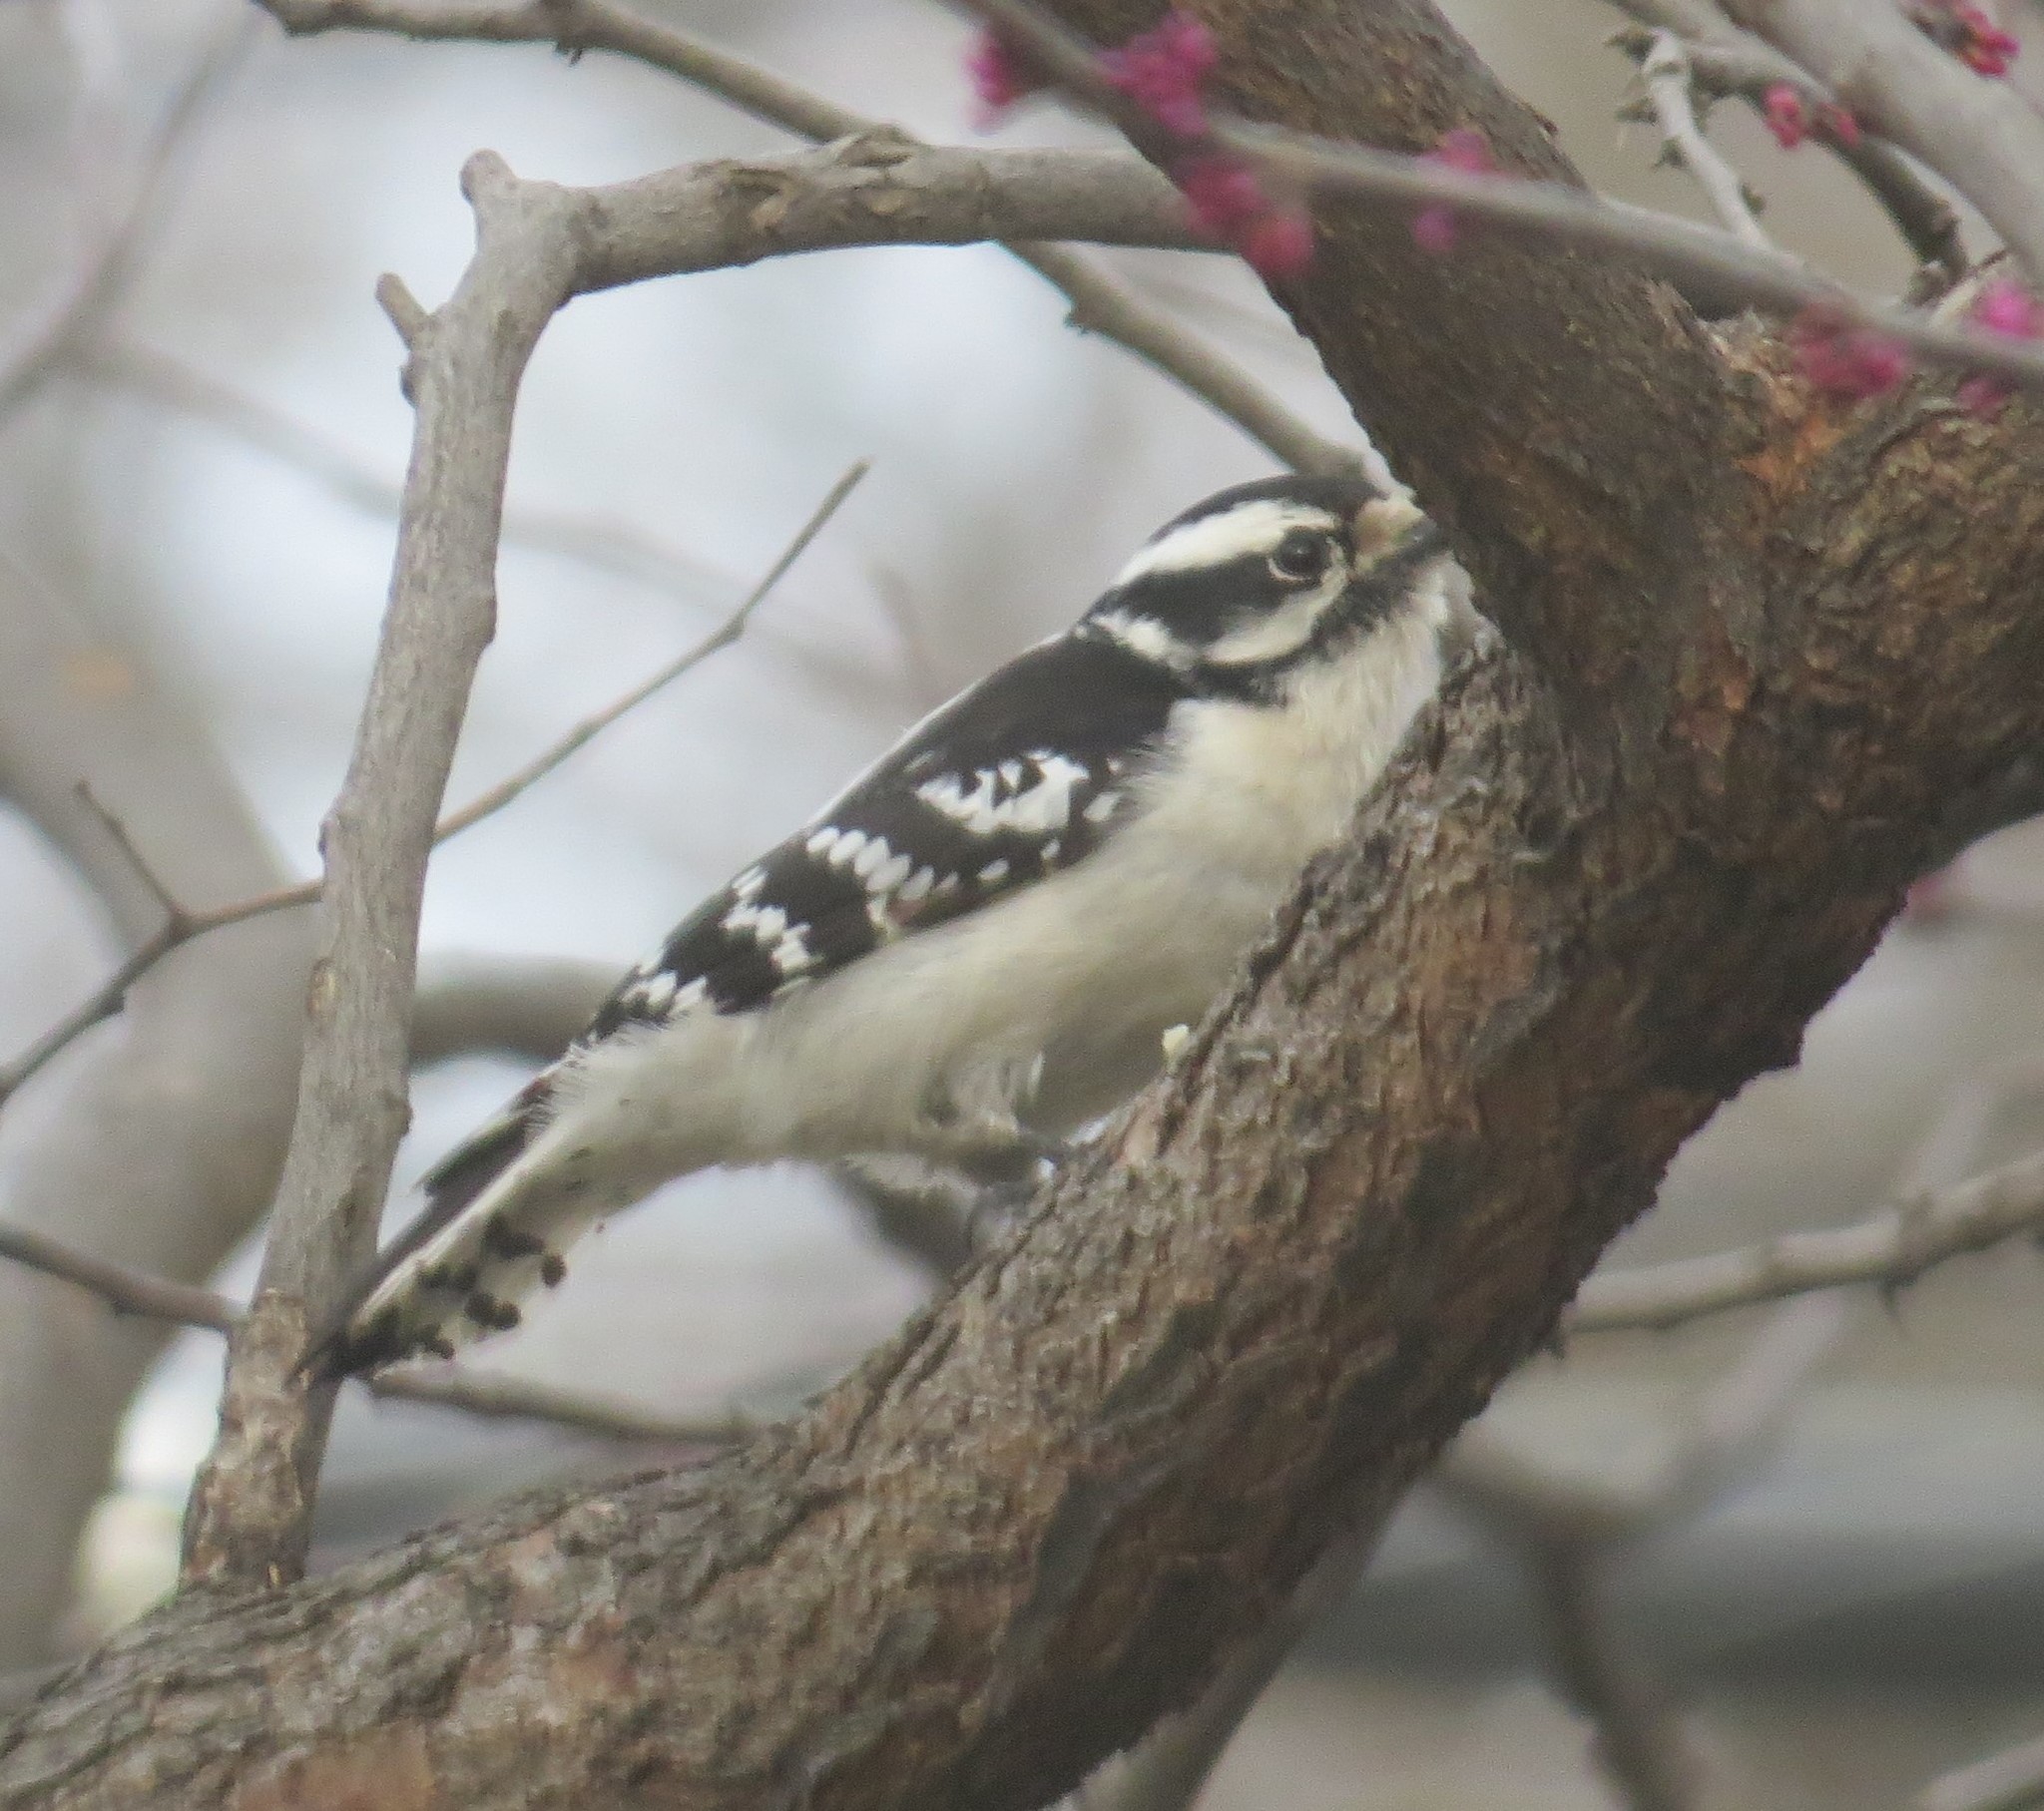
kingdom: Animalia
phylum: Chordata
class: Aves
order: Piciformes
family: Picidae
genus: Dryobates
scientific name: Dryobates pubescens
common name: Downy woodpecker
